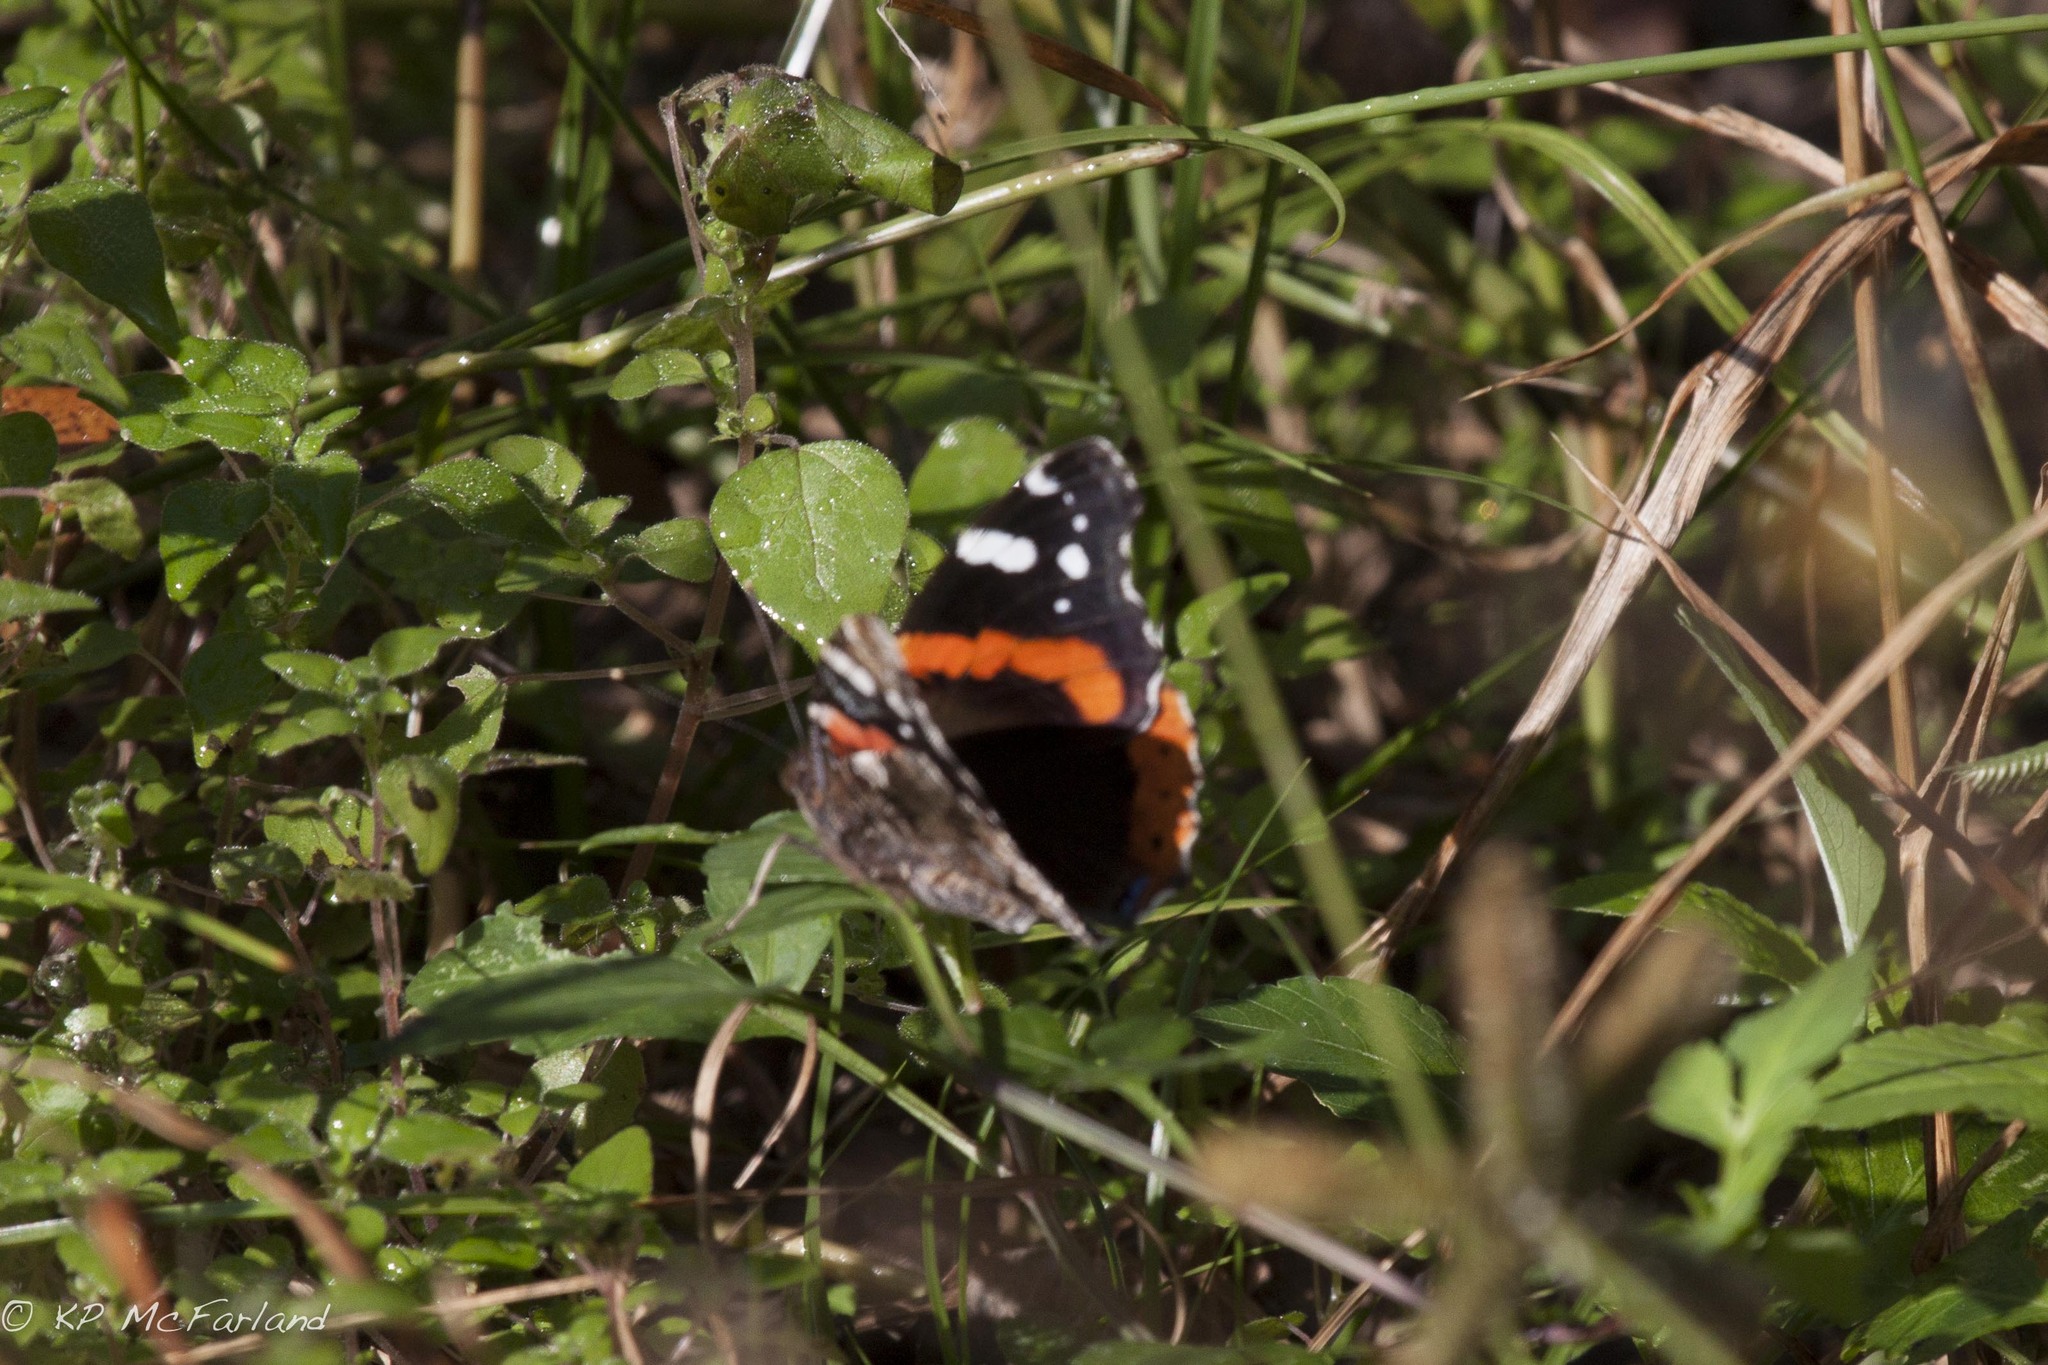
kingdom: Animalia
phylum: Arthropoda
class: Insecta
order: Lepidoptera
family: Nymphalidae
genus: Vanessa
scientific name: Vanessa atalanta
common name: Red admiral
